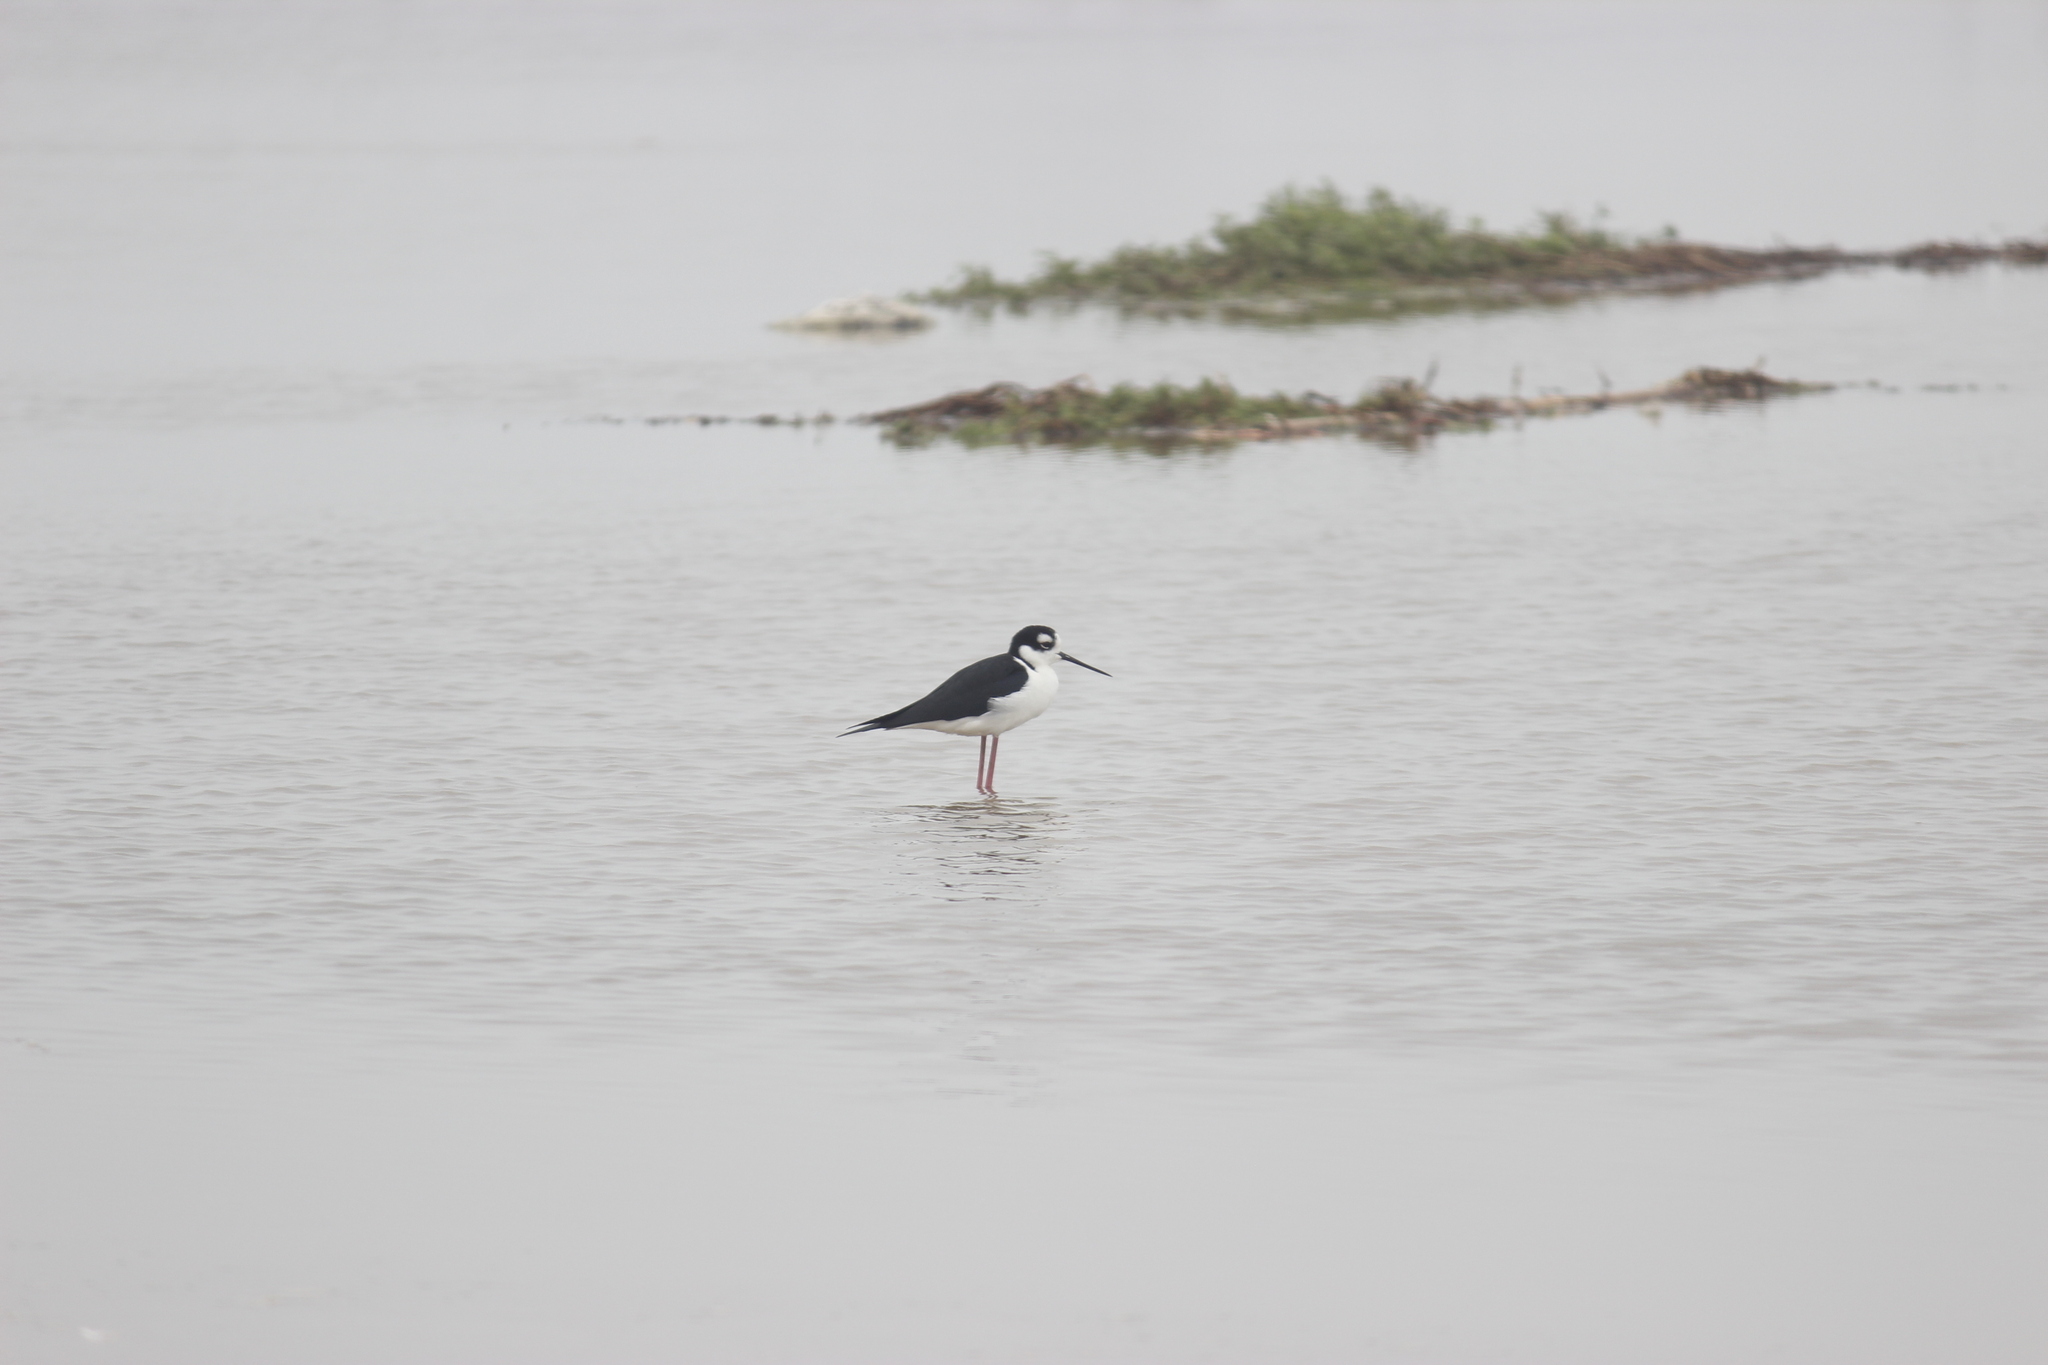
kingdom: Animalia
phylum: Chordata
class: Aves
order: Charadriiformes
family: Recurvirostridae
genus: Himantopus
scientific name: Himantopus mexicanus
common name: Black-necked stilt
